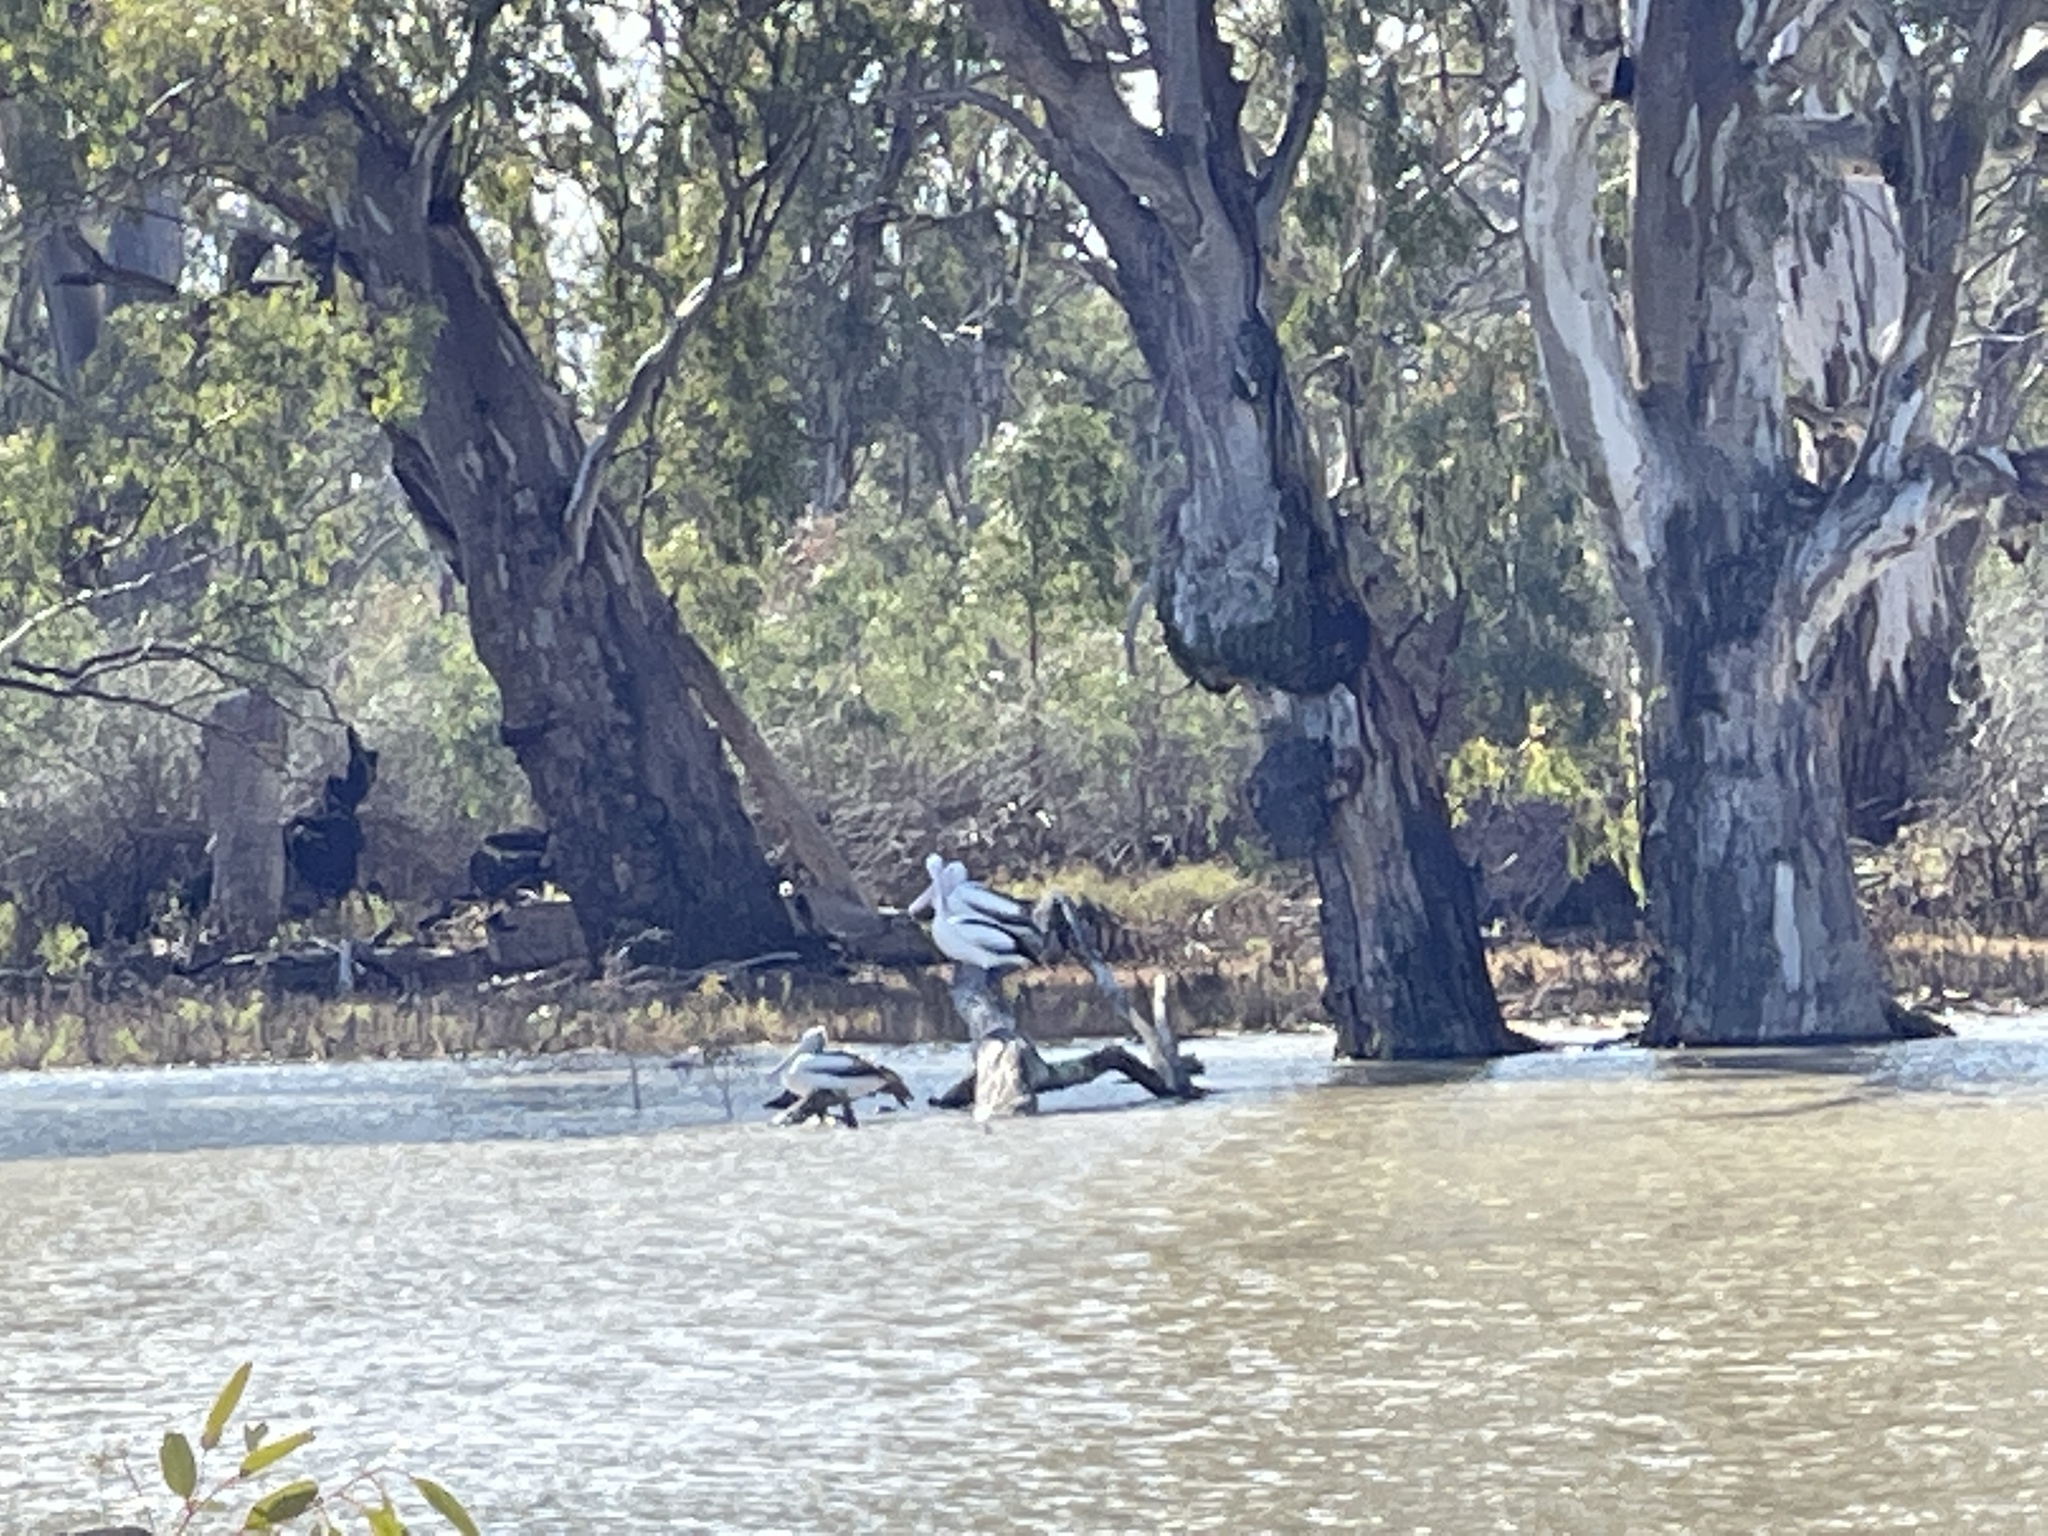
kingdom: Animalia
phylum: Chordata
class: Aves
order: Pelecaniformes
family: Pelecanidae
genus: Pelecanus
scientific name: Pelecanus conspicillatus
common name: Australian pelican
